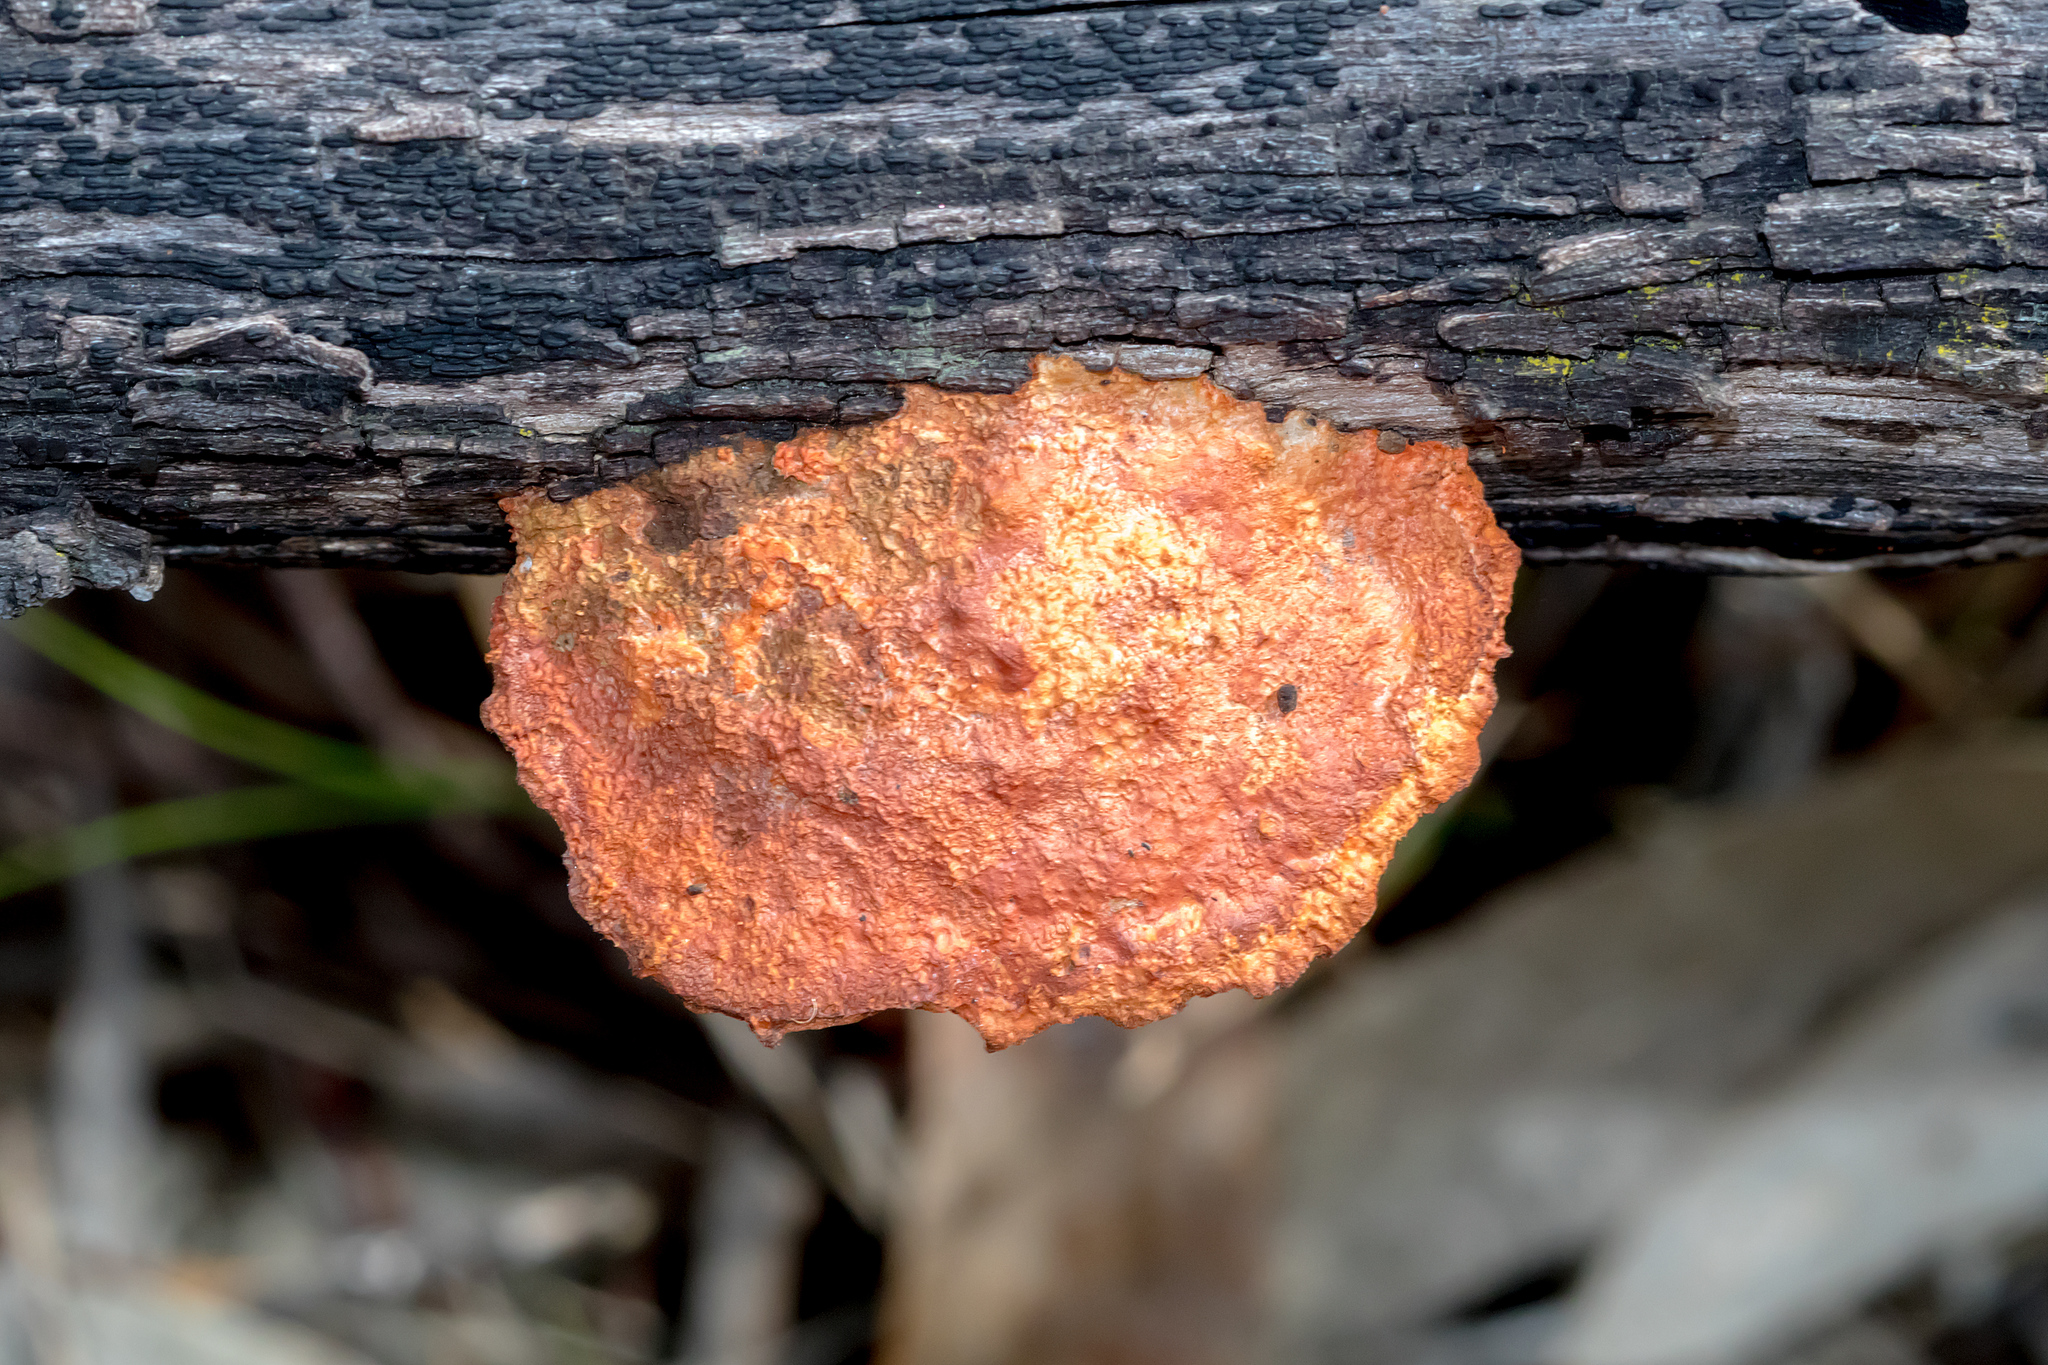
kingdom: Fungi
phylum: Basidiomycota
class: Agaricomycetes
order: Polyporales
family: Polyporaceae
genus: Trametes
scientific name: Trametes coccinea
